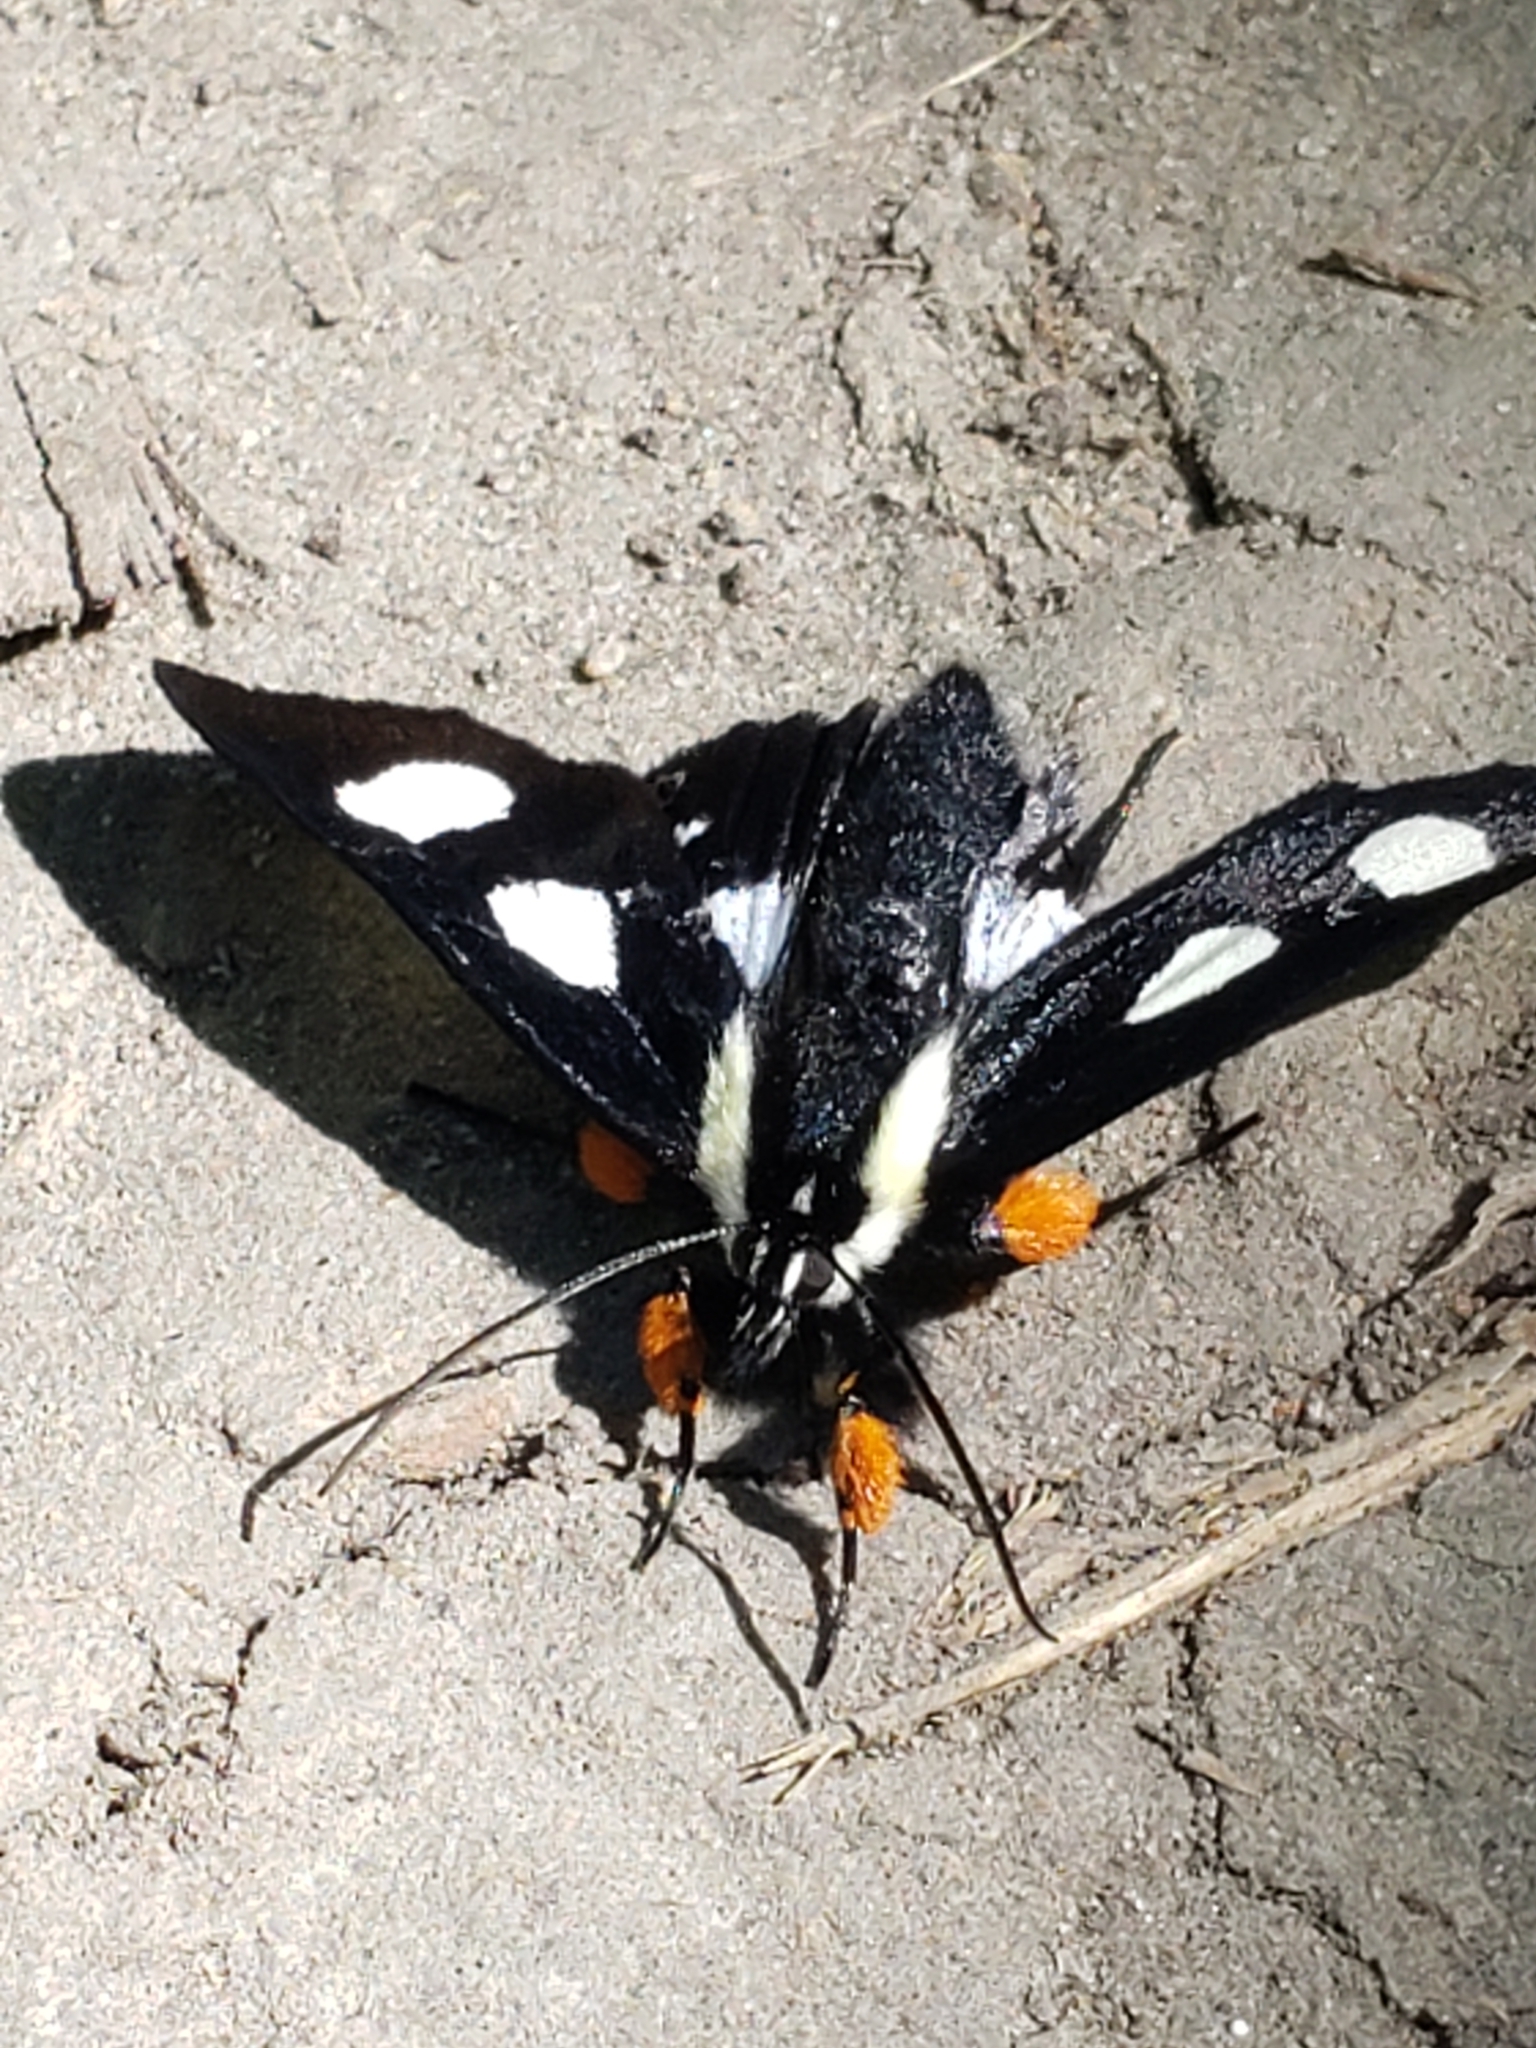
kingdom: Animalia
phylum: Arthropoda
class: Insecta
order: Lepidoptera
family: Noctuidae
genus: Alypia
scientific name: Alypia octomaculata
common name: Eight-spotted forester
